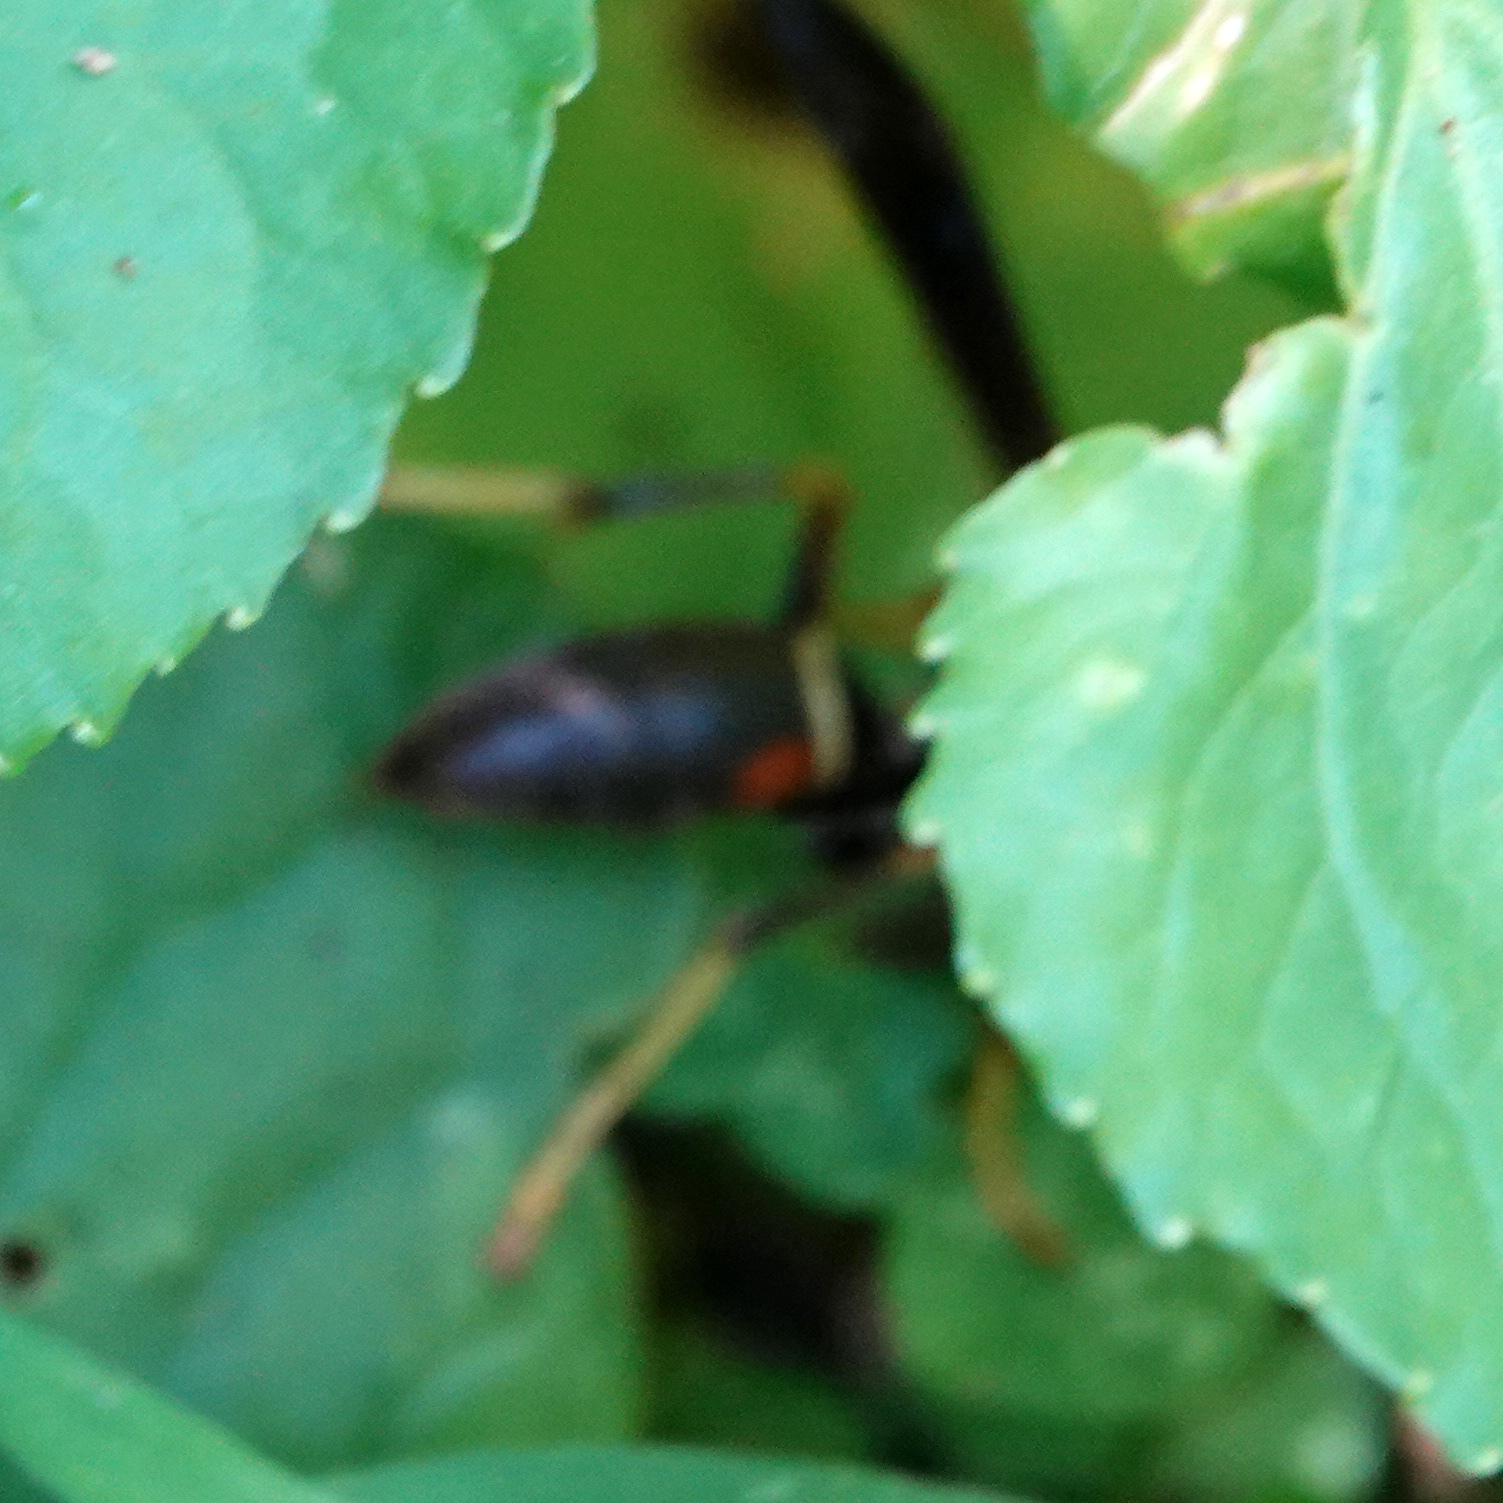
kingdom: Animalia
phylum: Arthropoda
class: Insecta
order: Hymenoptera
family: Vespidae
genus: Fuscopolistes
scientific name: Fuscopolistes
